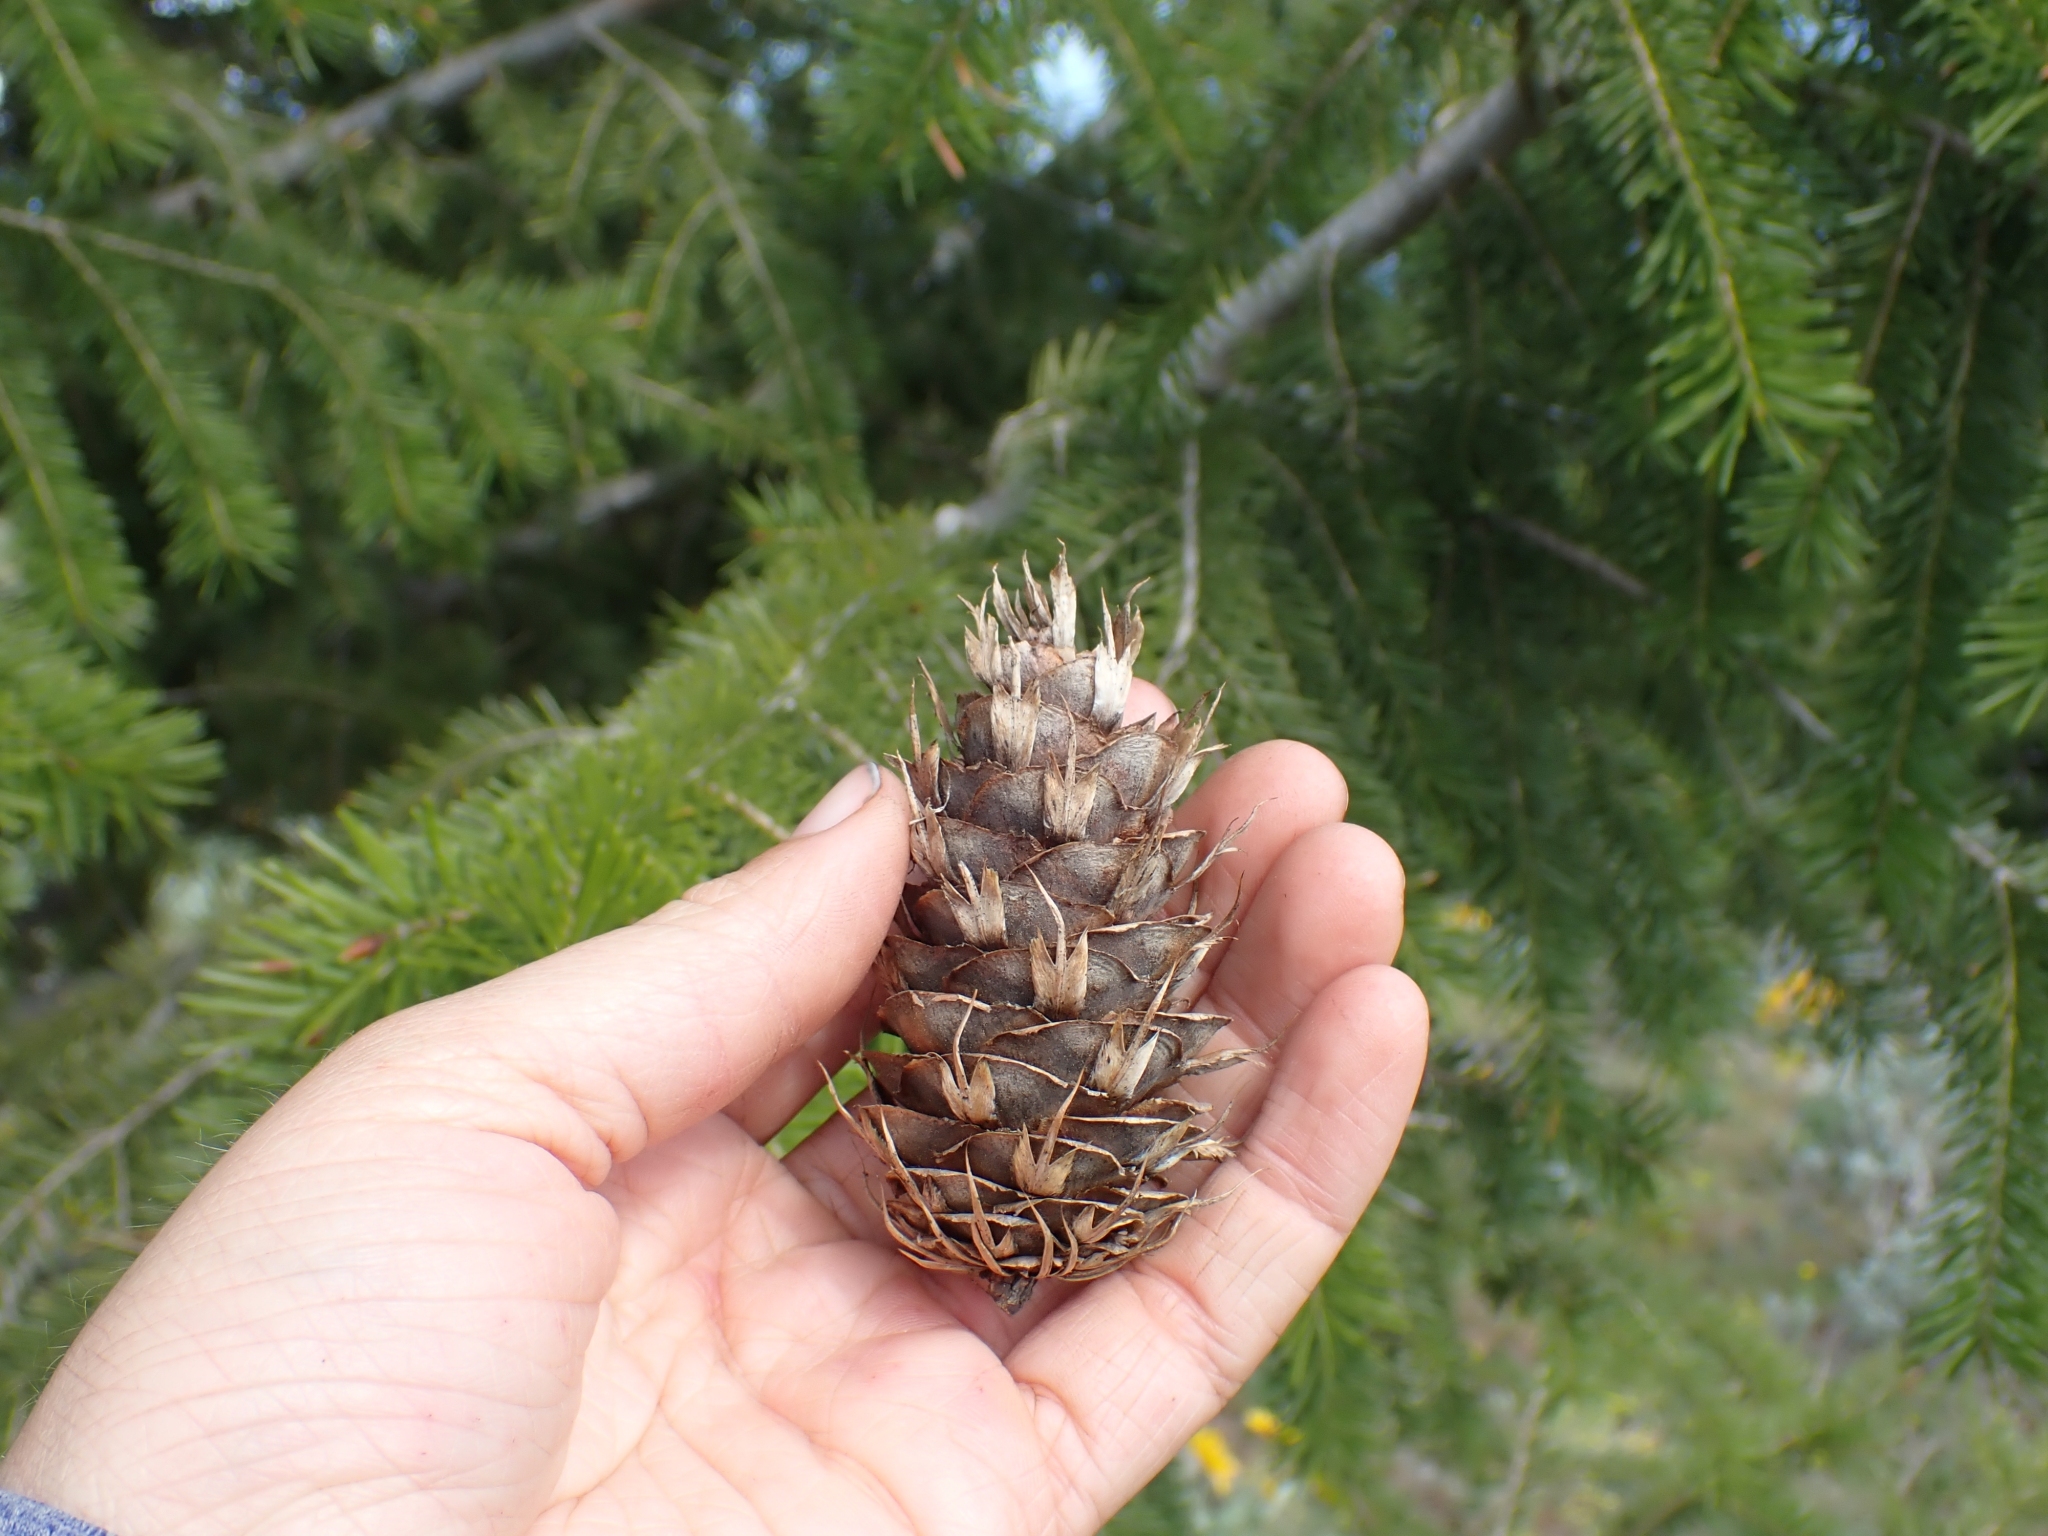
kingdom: Plantae
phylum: Tracheophyta
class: Pinopsida
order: Pinales
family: Pinaceae
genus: Pseudotsuga
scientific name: Pseudotsuga menziesii
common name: Douglas fir
